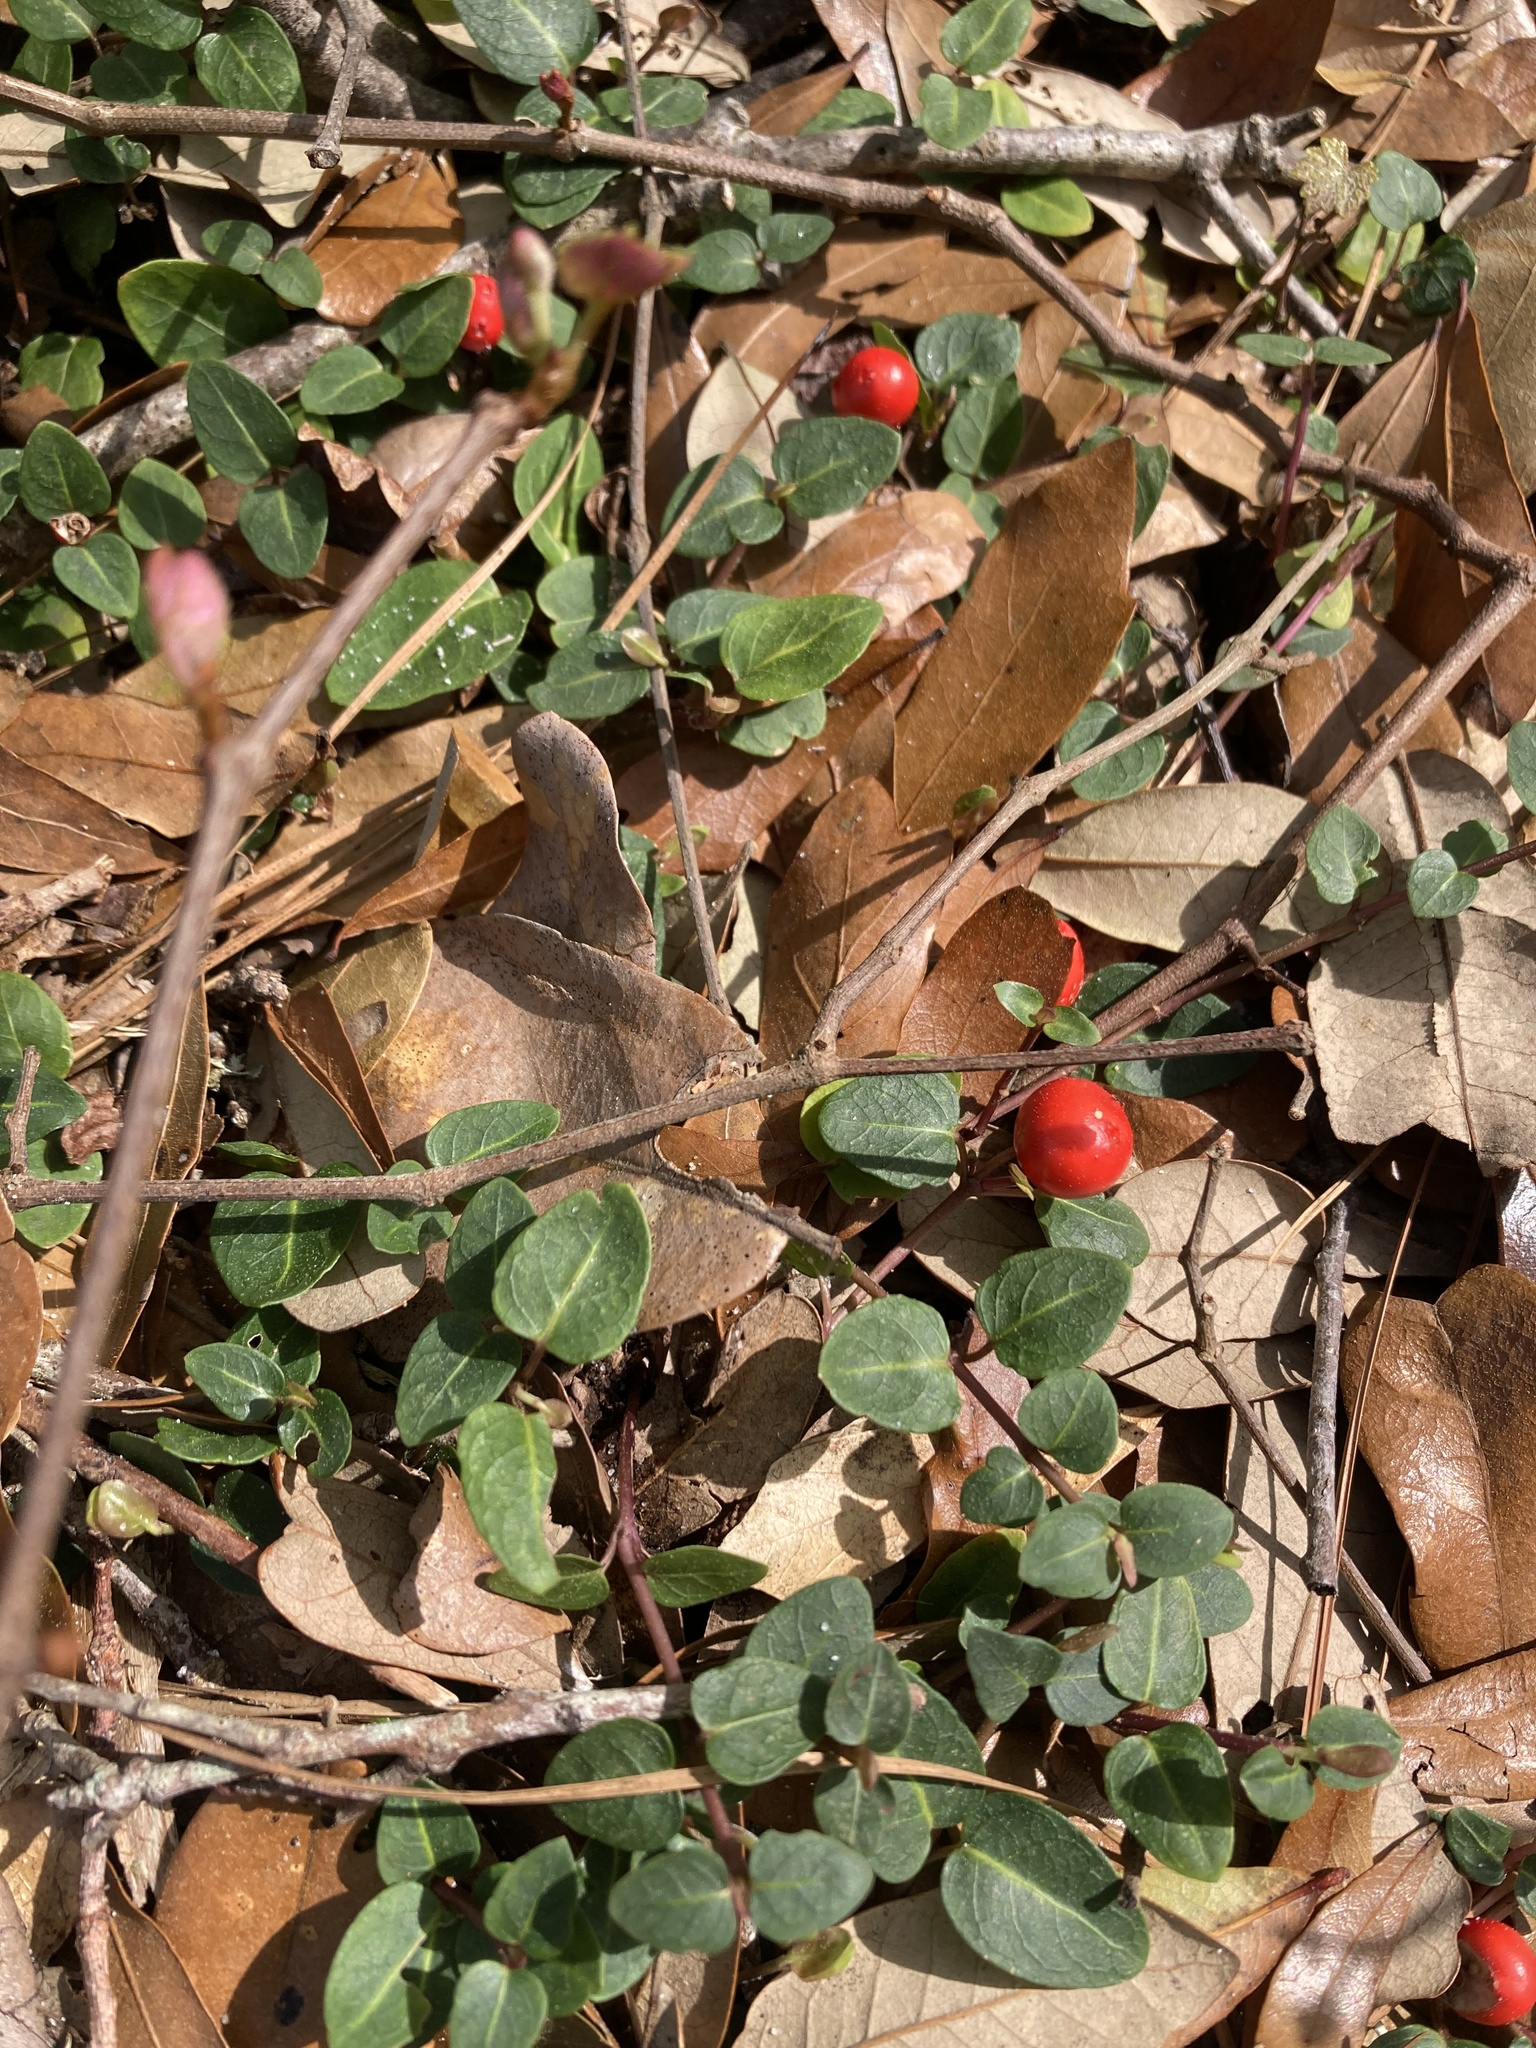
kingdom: Plantae
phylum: Tracheophyta
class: Magnoliopsida
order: Gentianales
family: Rubiaceae
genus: Mitchella
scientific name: Mitchella repens
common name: Partridge-berry
